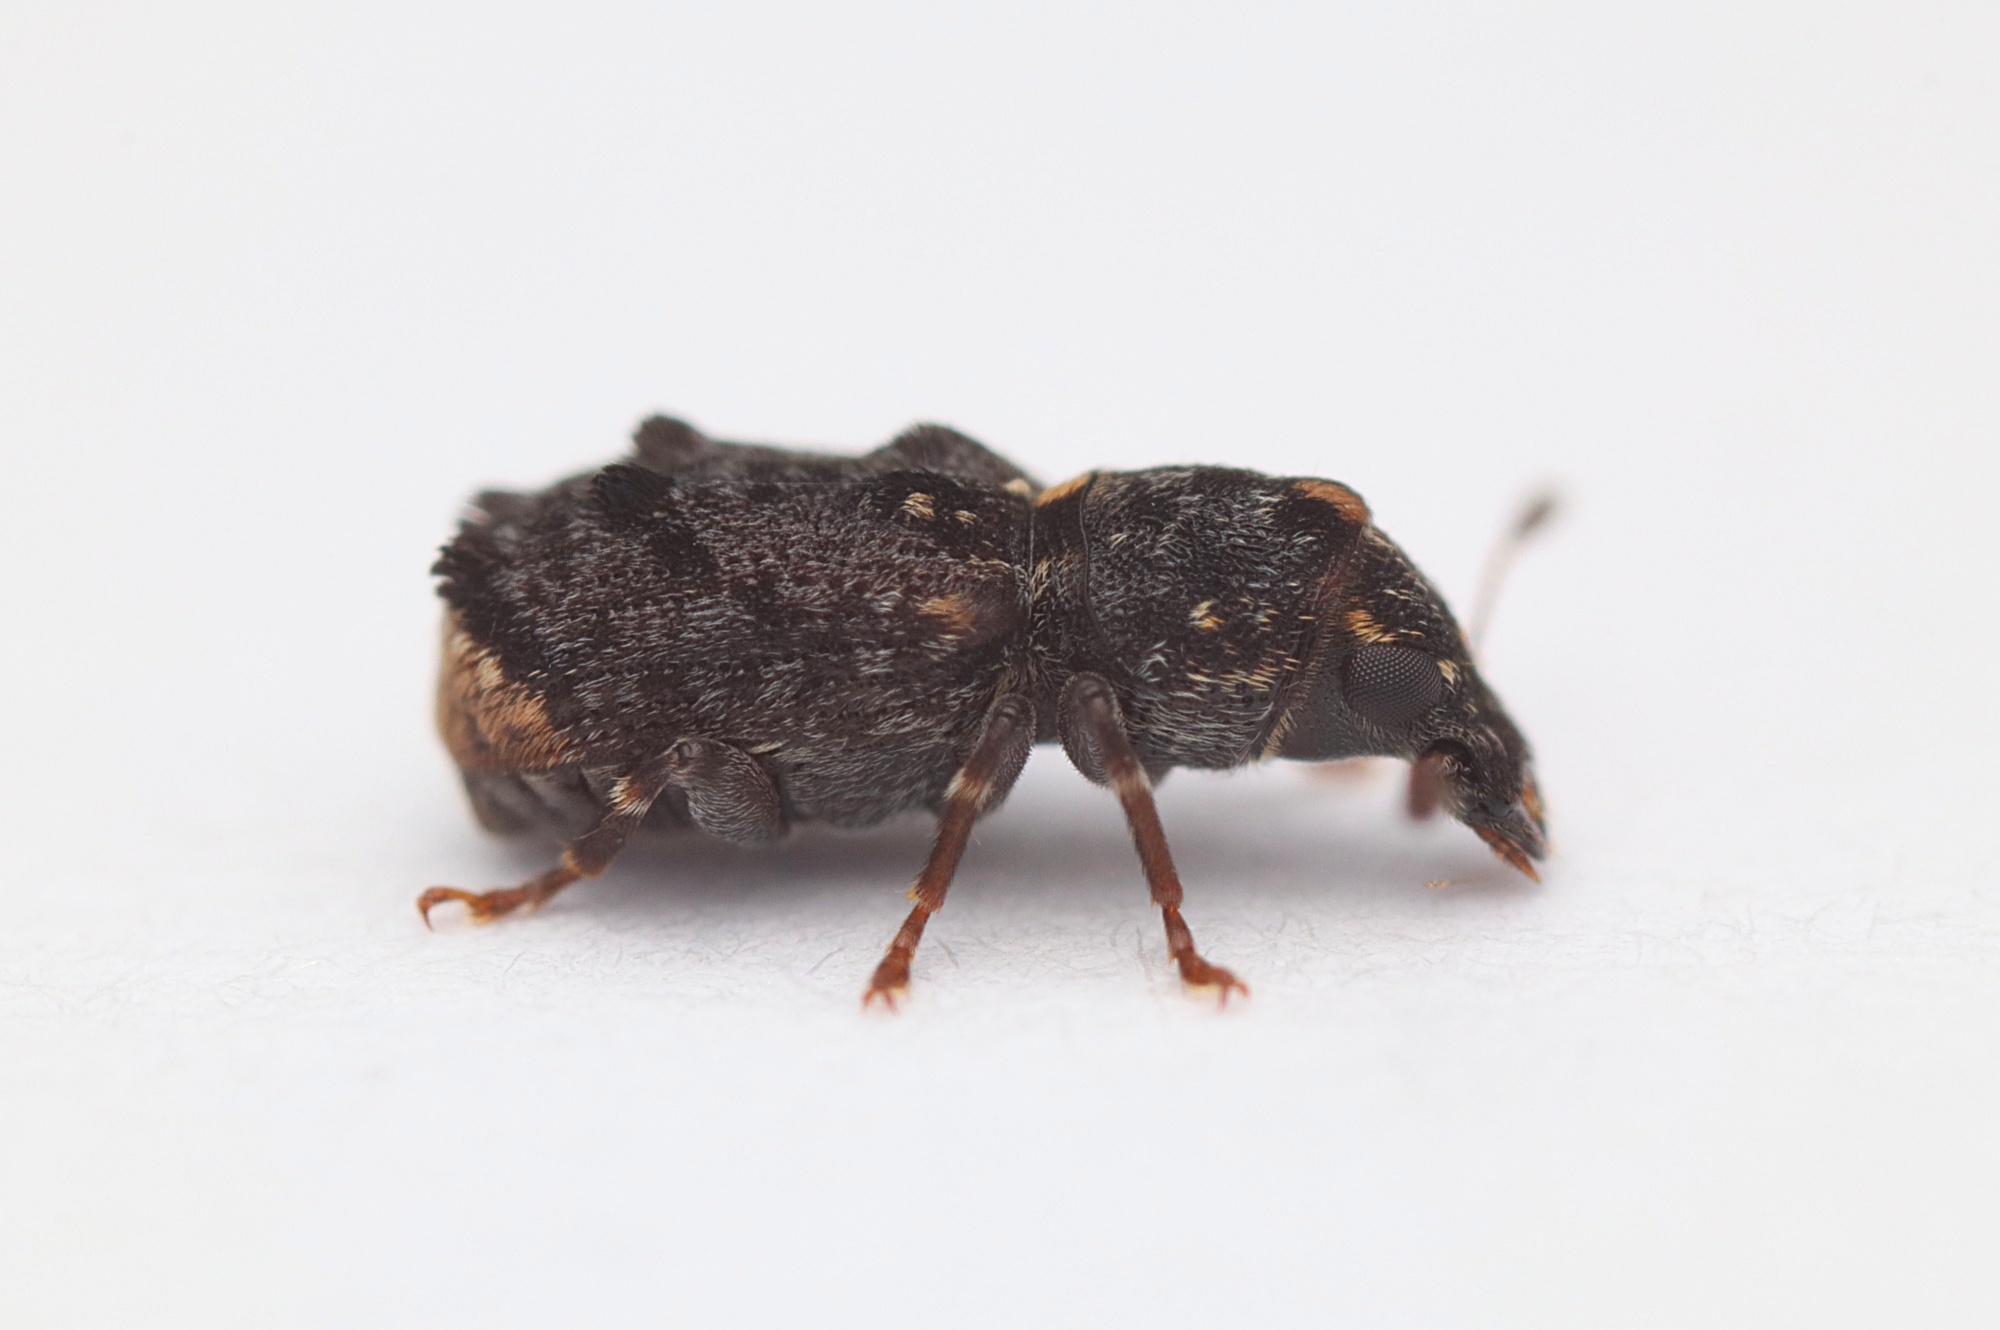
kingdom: Animalia
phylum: Arthropoda
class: Insecta
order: Coleoptera
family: Anthribidae
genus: Pleosporius
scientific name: Pleosporius bullatus
